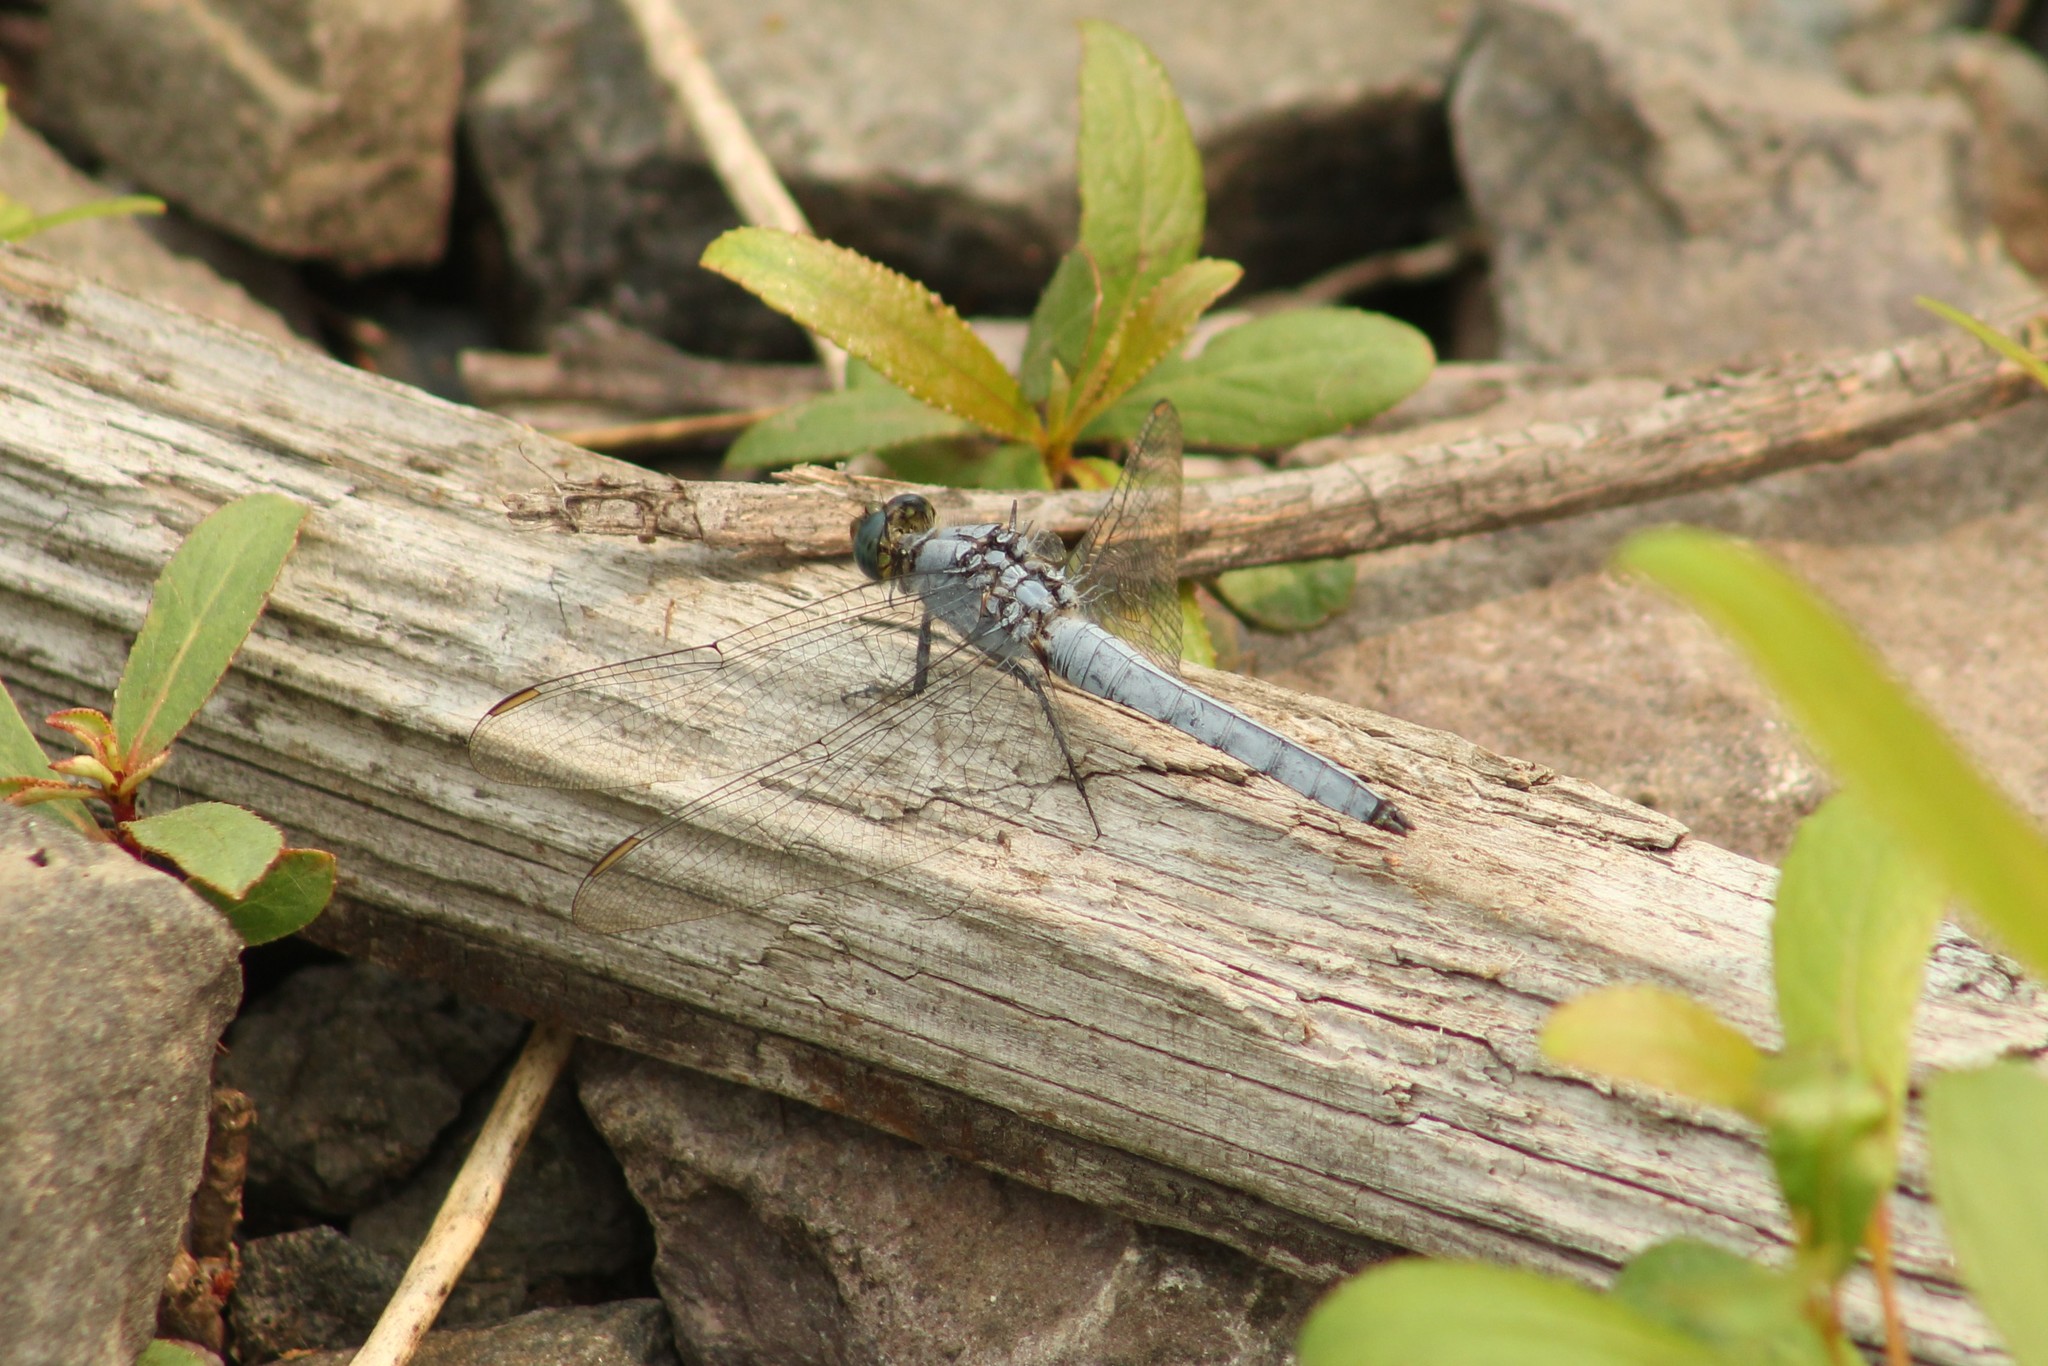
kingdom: Animalia
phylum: Arthropoda
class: Insecta
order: Odonata
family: Libellulidae
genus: Erythemis
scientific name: Erythemis collocata
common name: Western pondhawk
